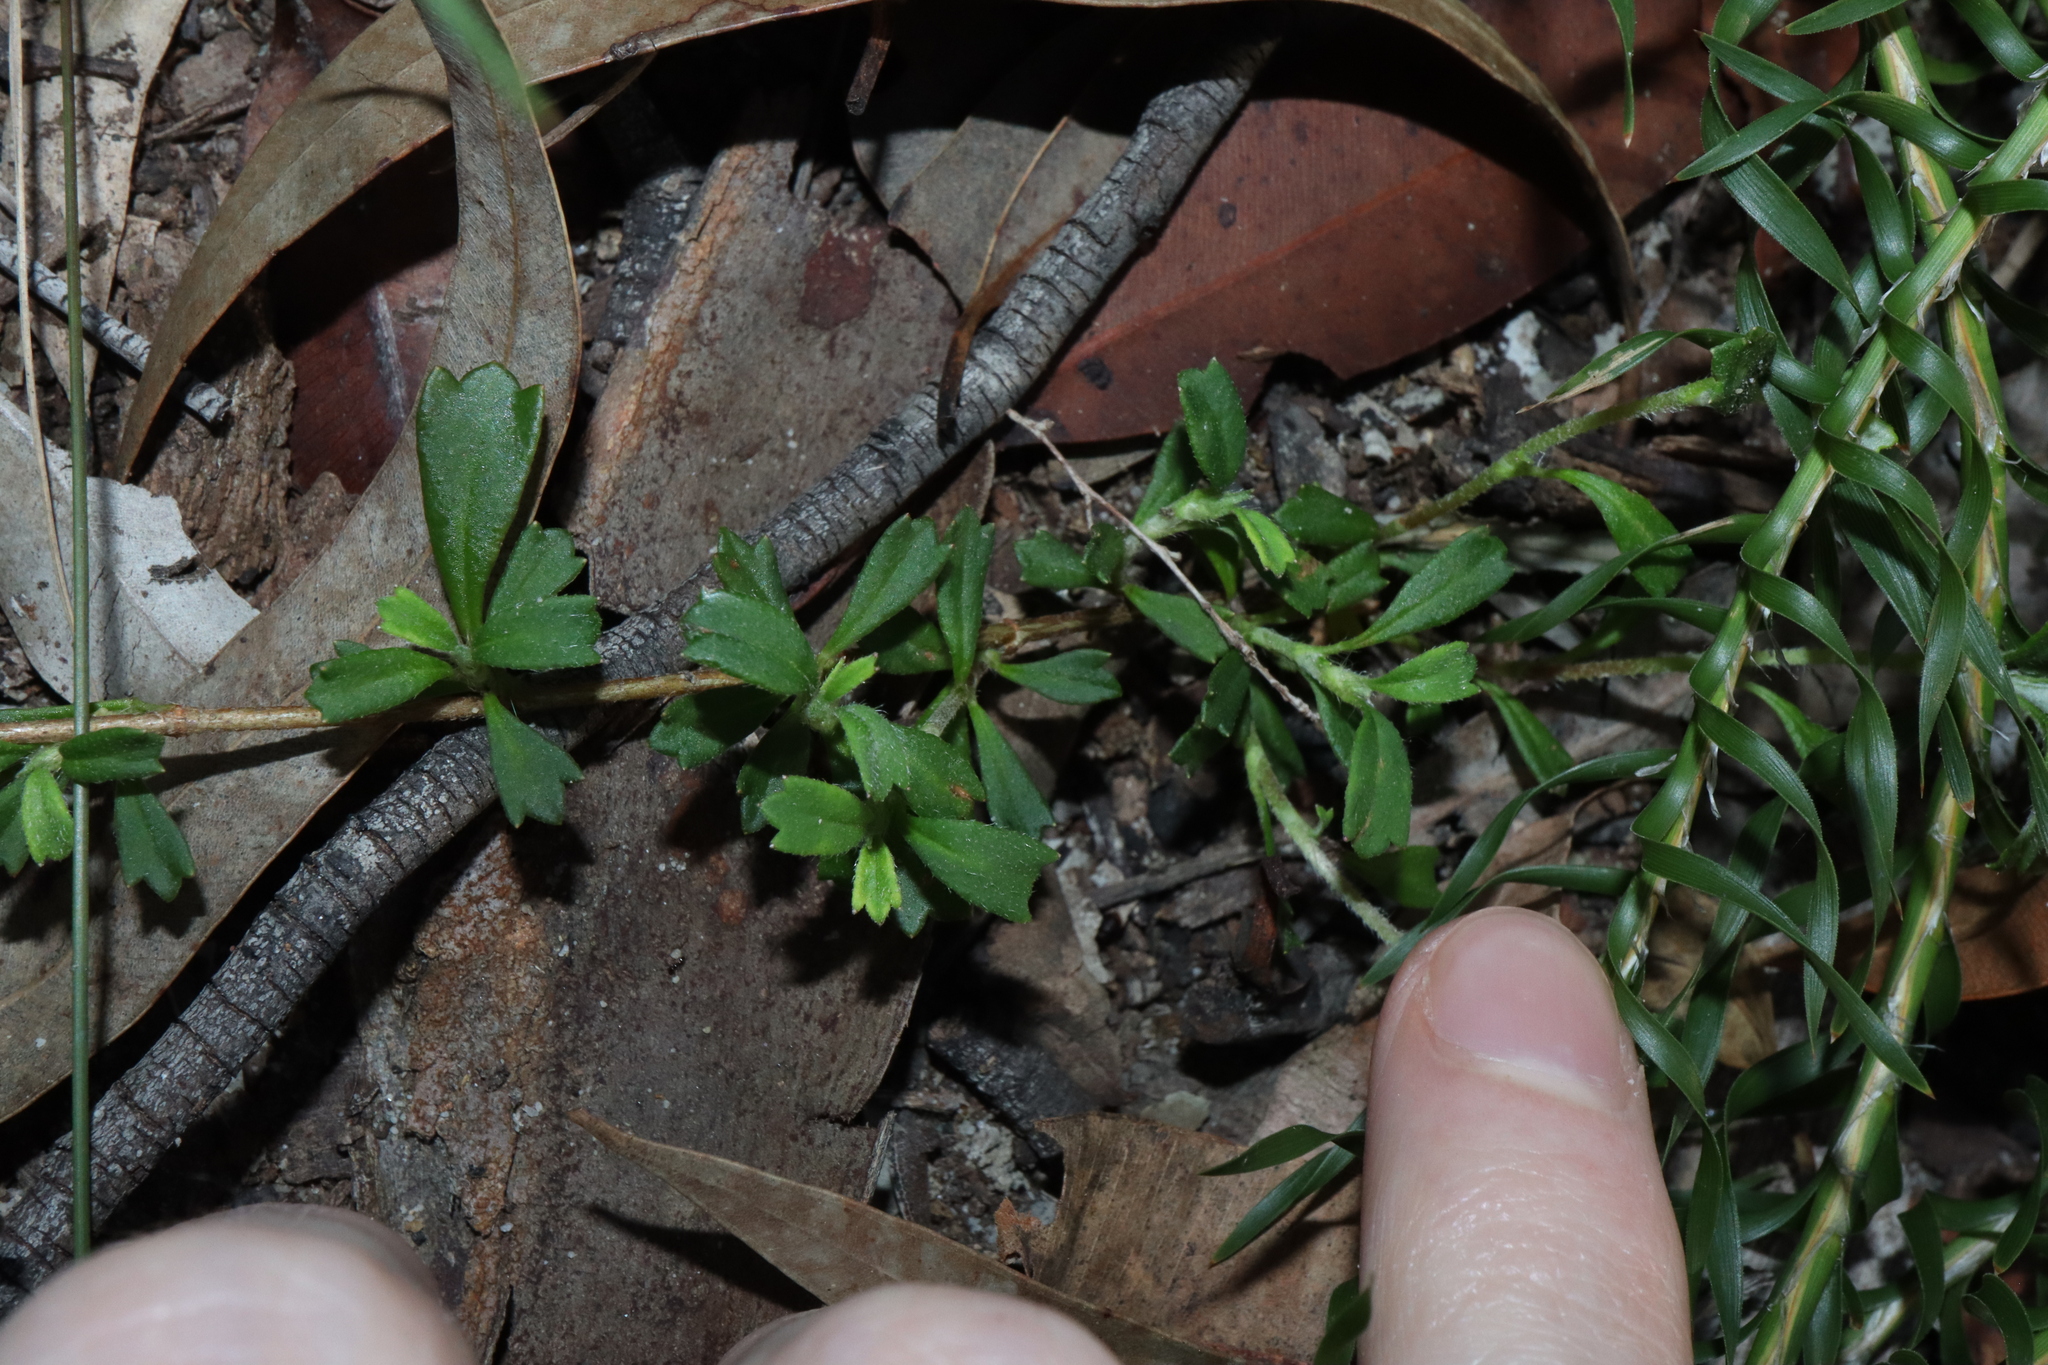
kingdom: Plantae
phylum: Tracheophyta
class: Magnoliopsida
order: Apiales
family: Apiaceae
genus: Xanthosia
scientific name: Xanthosia tridentata
